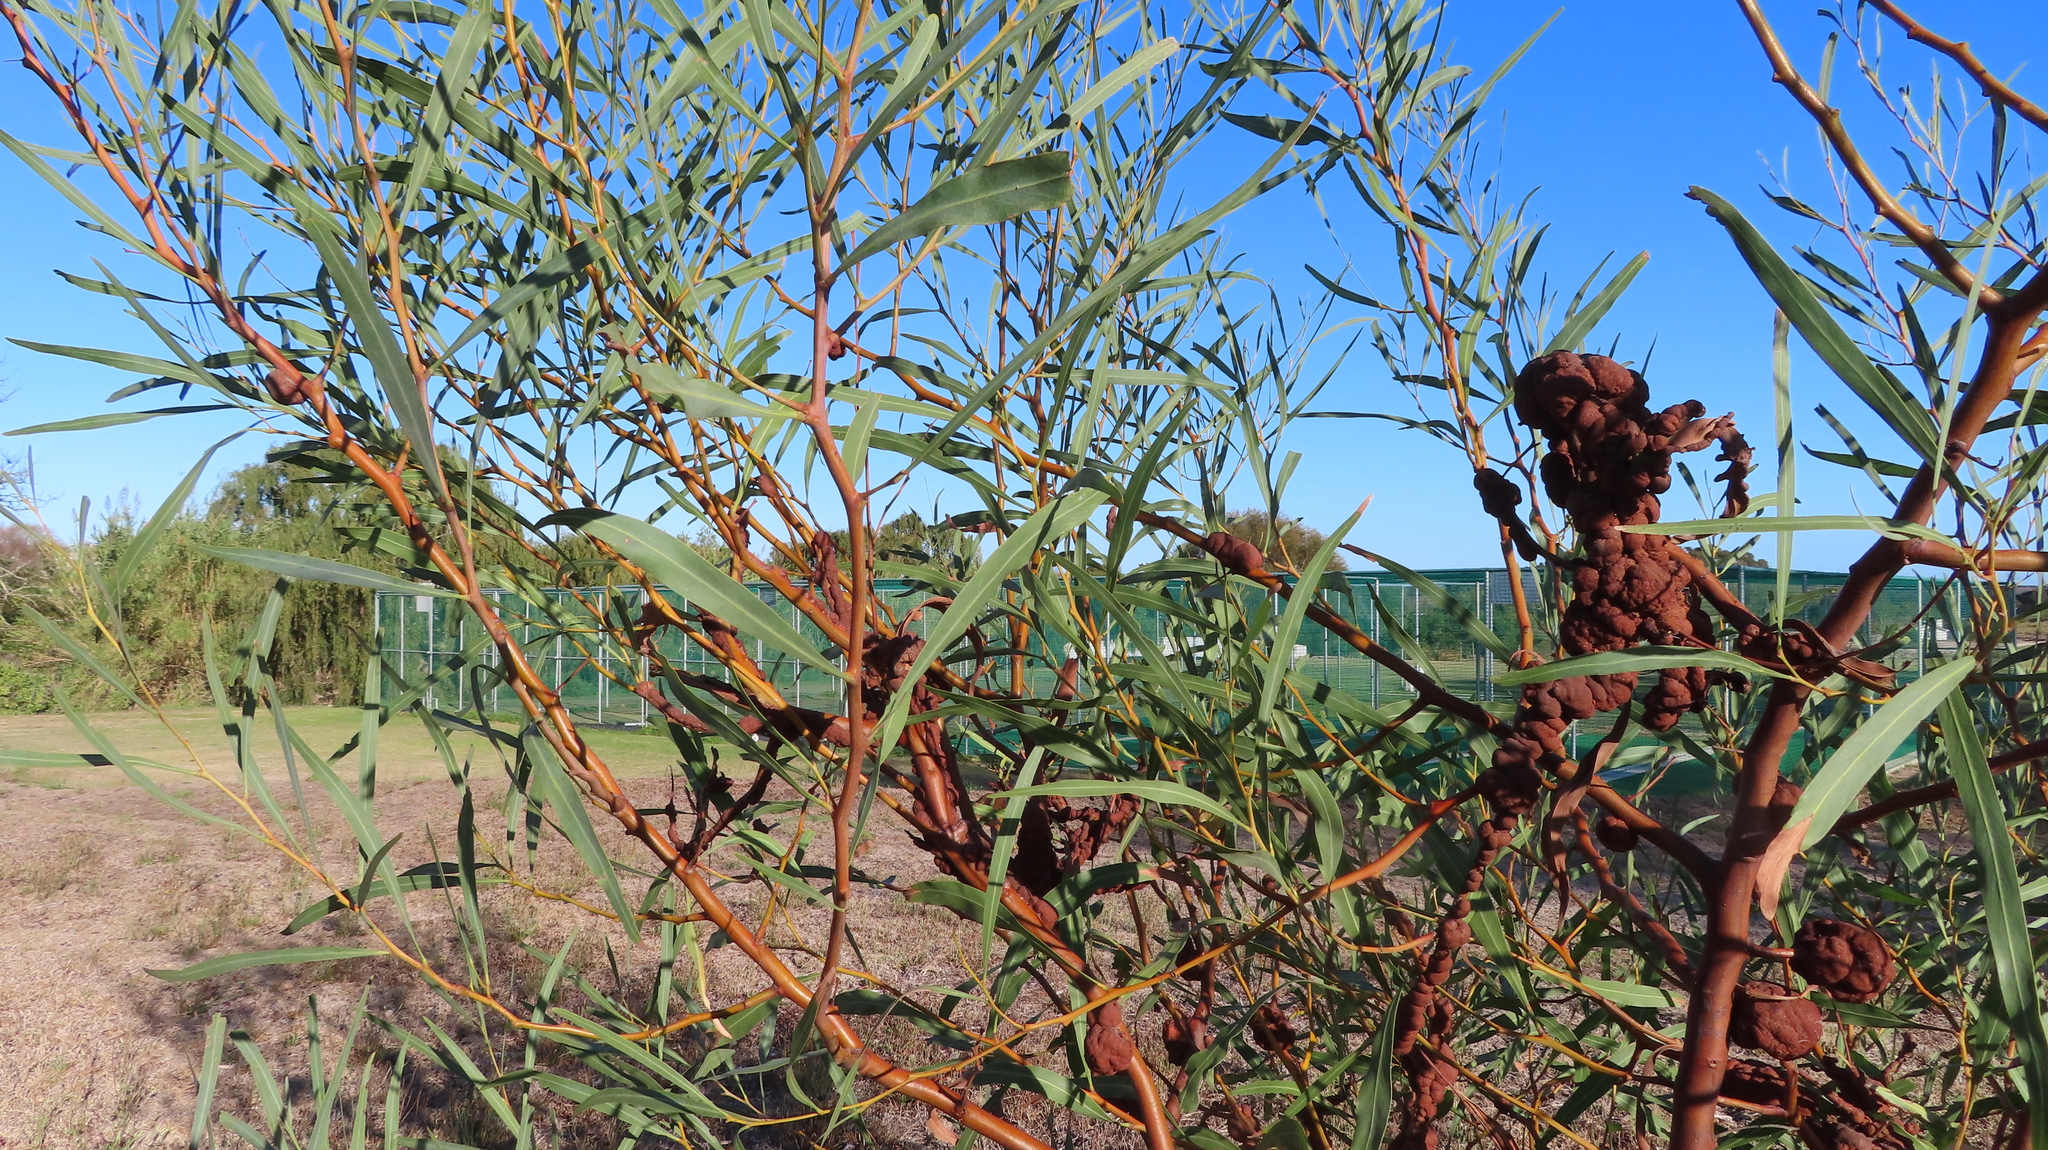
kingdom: Plantae
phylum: Tracheophyta
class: Magnoliopsida
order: Fabales
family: Fabaceae
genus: Acacia
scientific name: Acacia saligna
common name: Orange wattle
